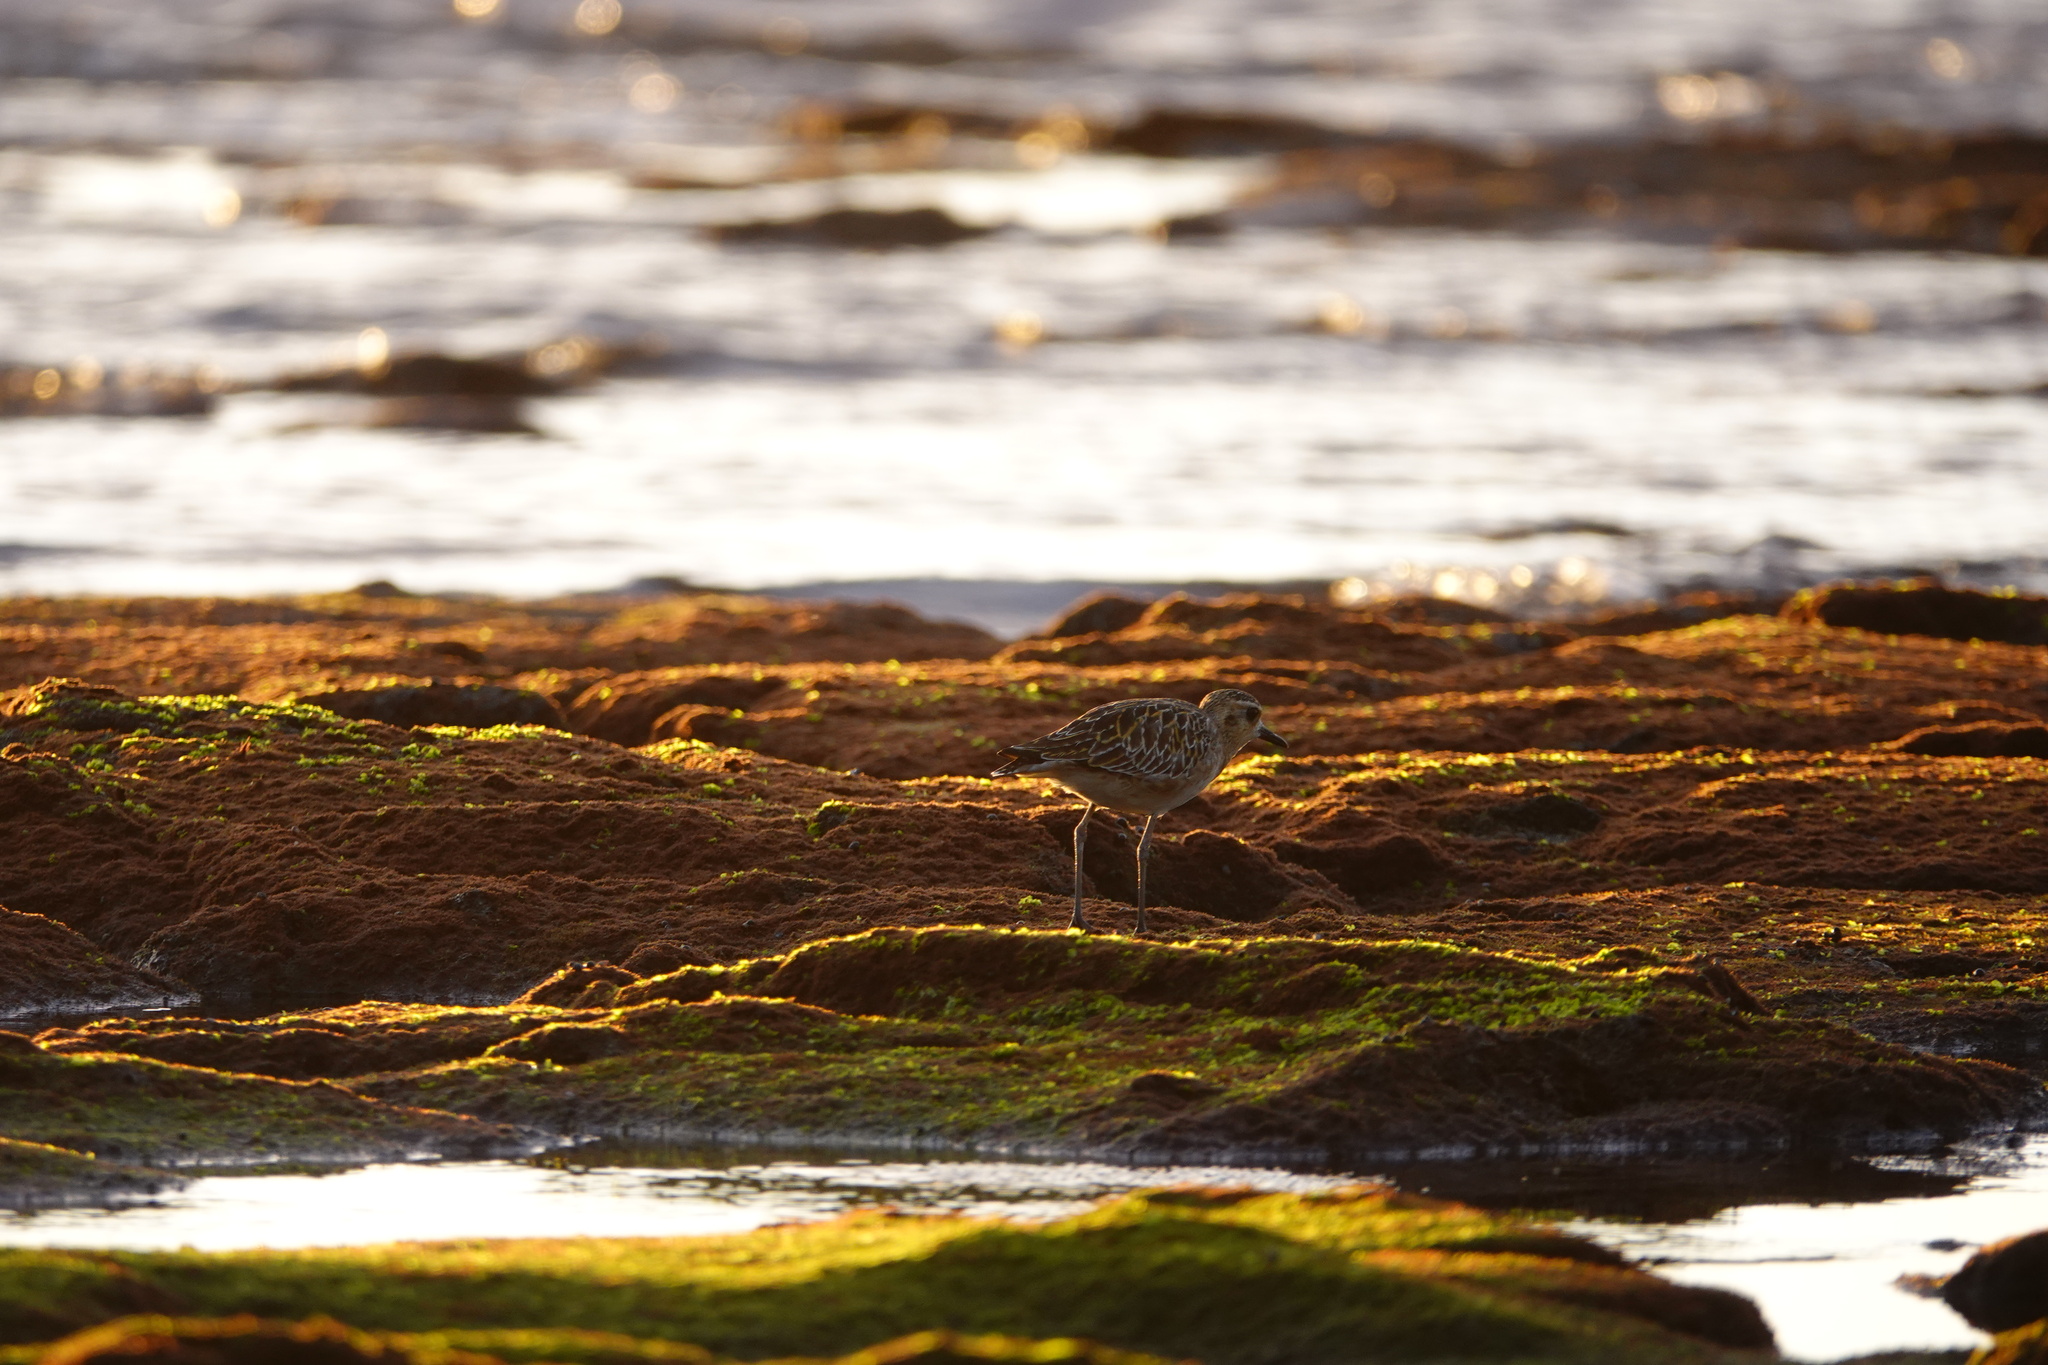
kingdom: Animalia
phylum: Chordata
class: Aves
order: Charadriiformes
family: Charadriidae
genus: Pluvialis
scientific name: Pluvialis fulva
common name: Pacific golden plover
